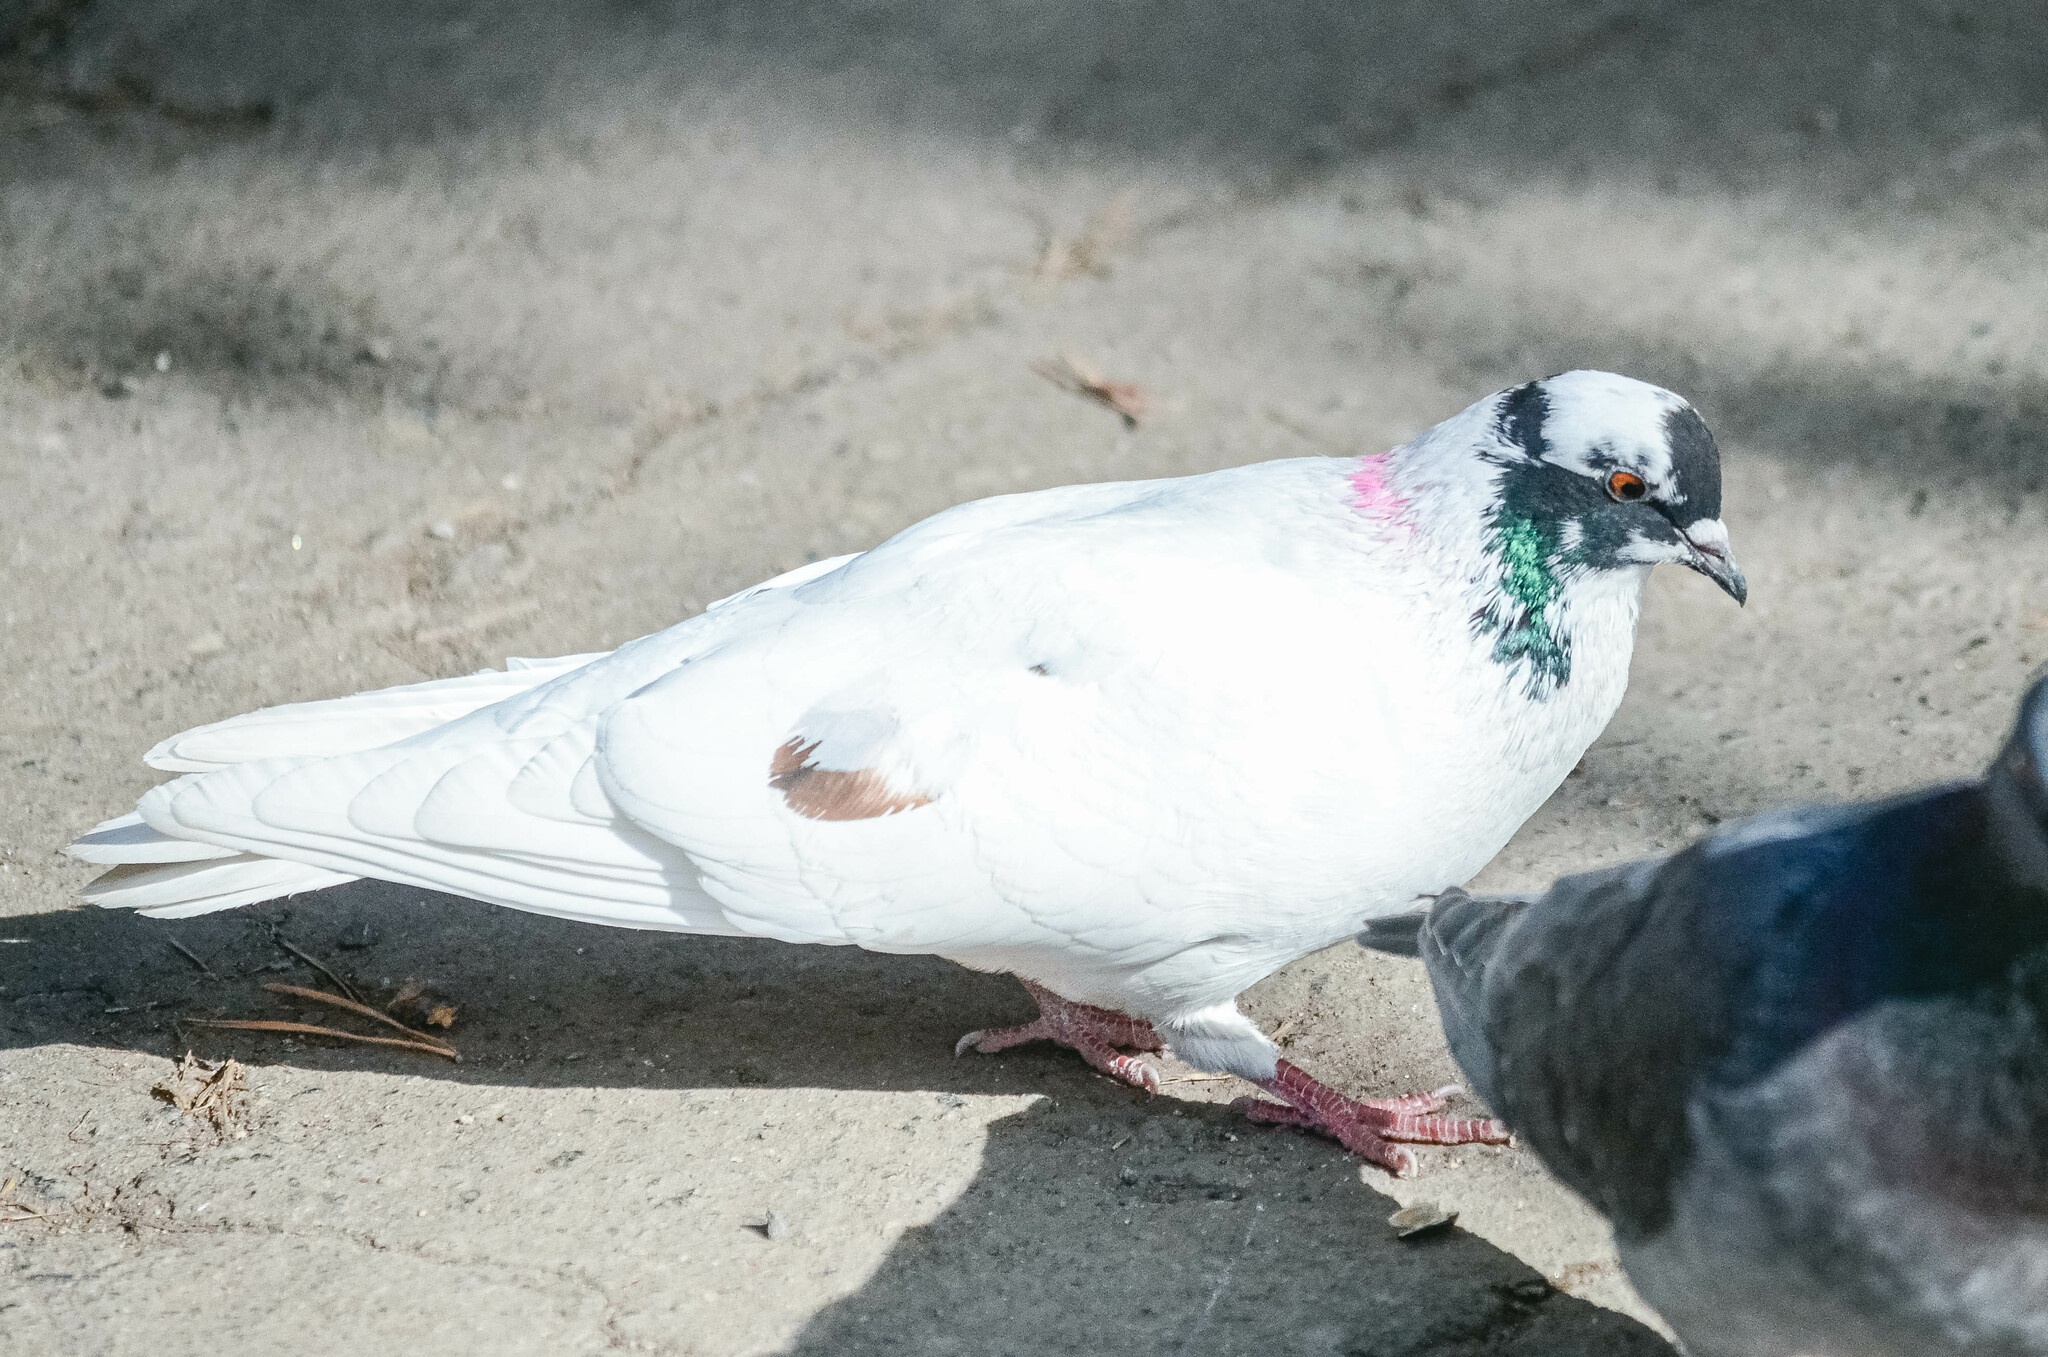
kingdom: Animalia
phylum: Chordata
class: Aves
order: Columbiformes
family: Columbidae
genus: Columba
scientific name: Columba livia
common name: Rock pigeon
